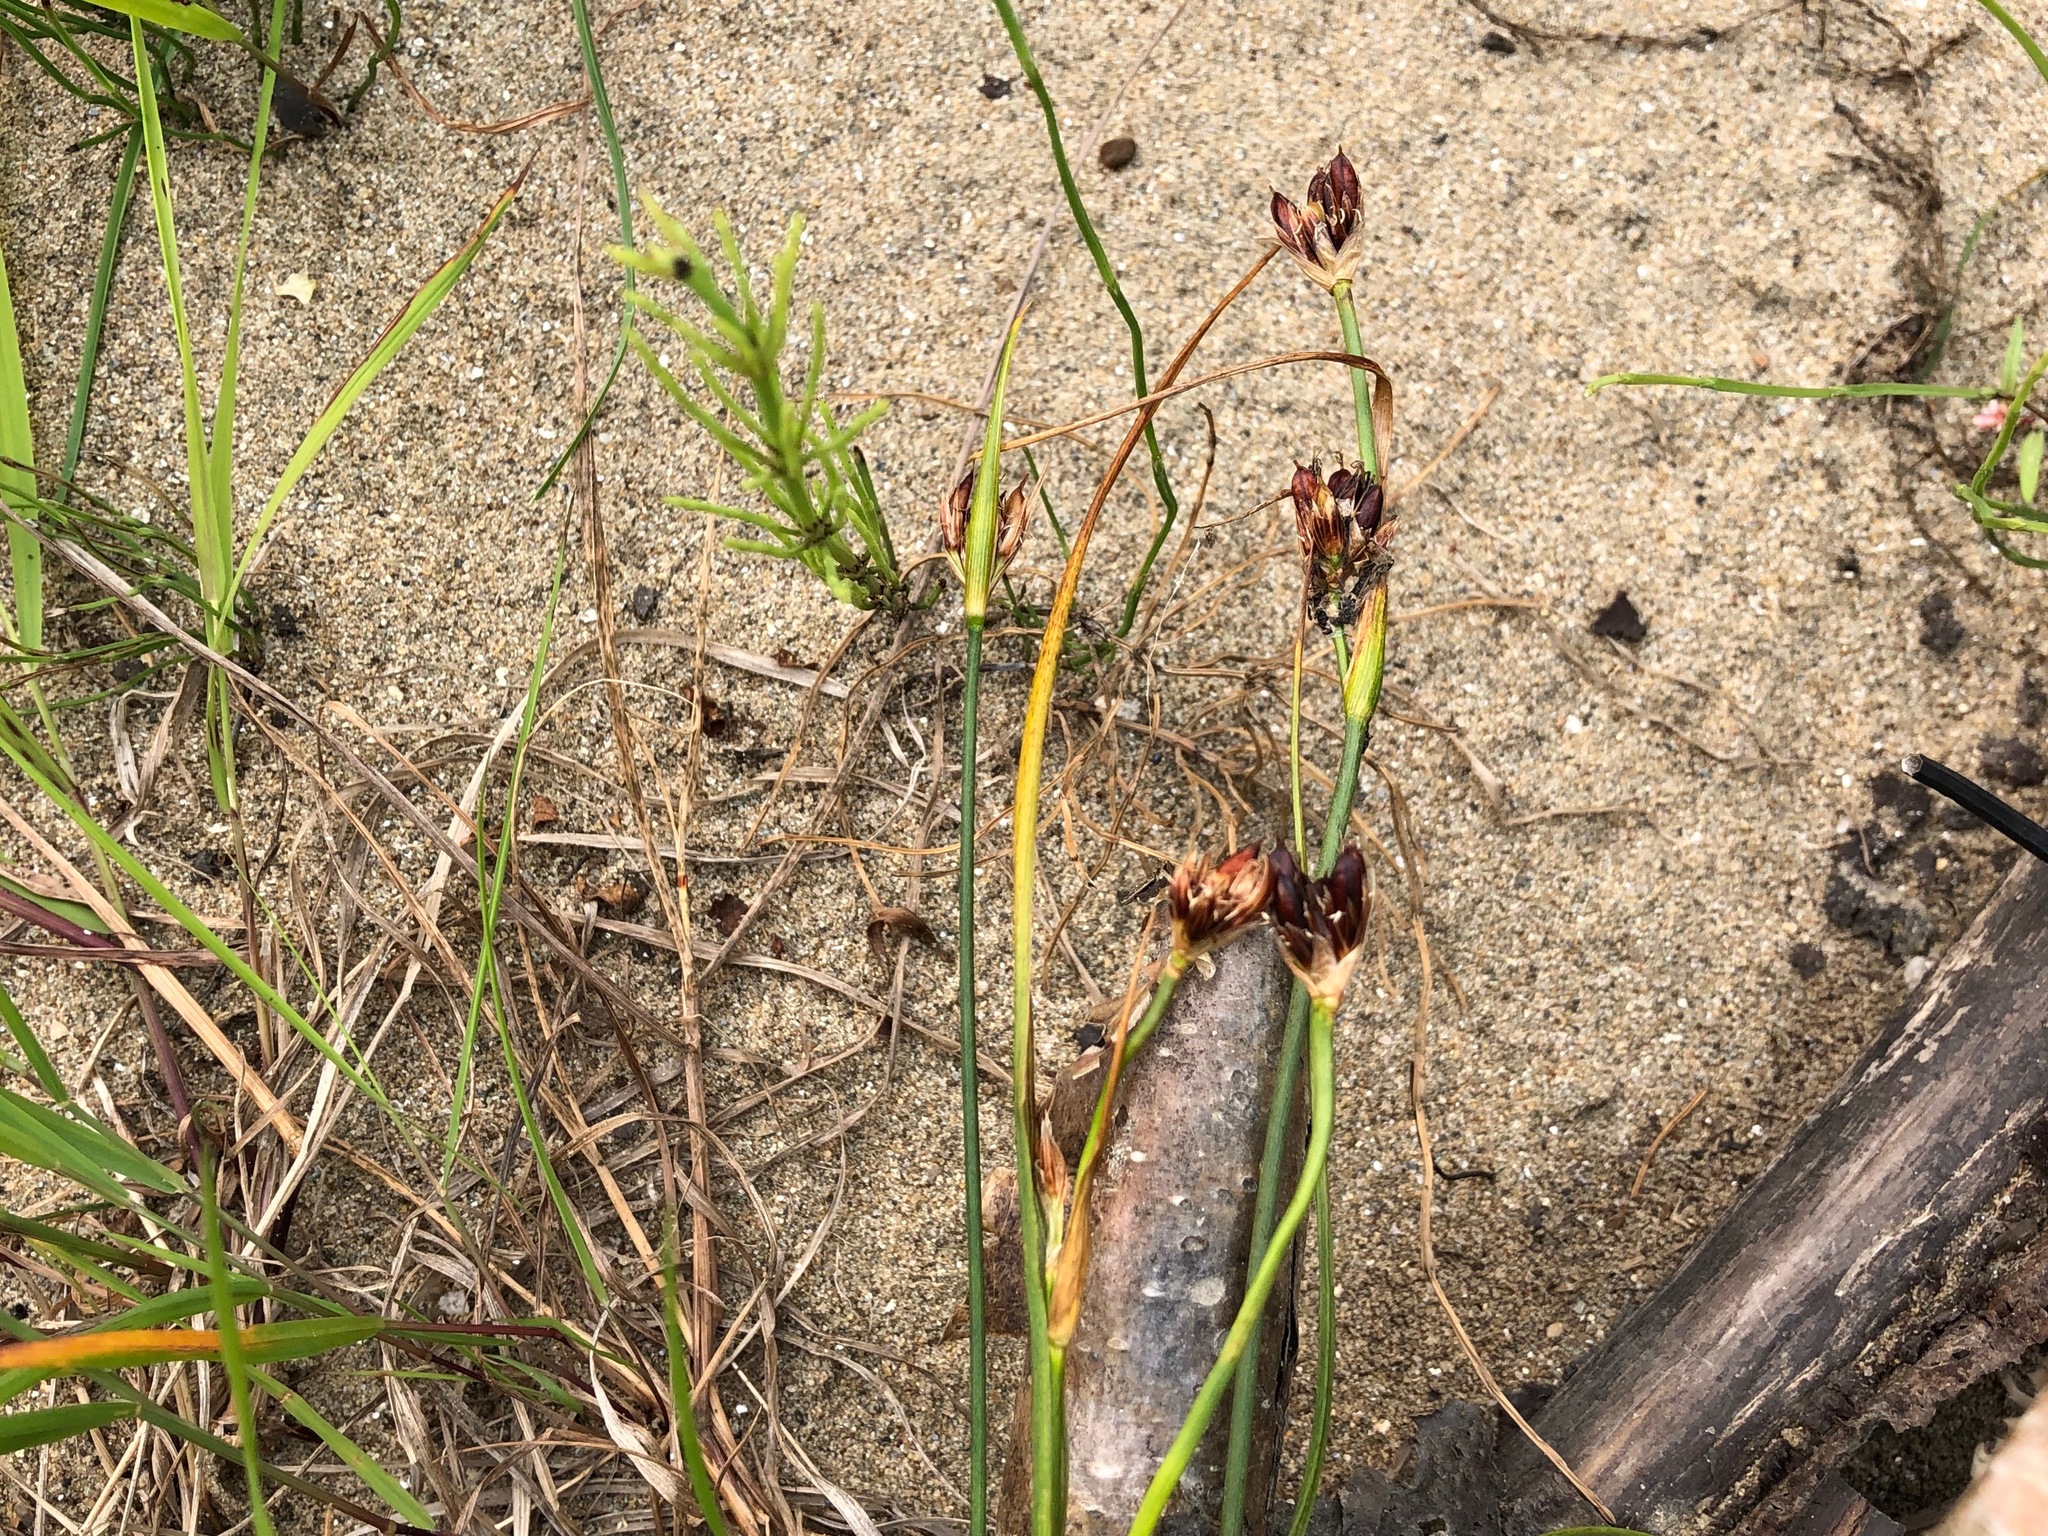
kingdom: Plantae
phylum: Tracheophyta
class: Liliopsida
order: Poales
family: Juncaceae
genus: Juncus
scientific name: Juncus castaneus
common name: Chestnut rush
